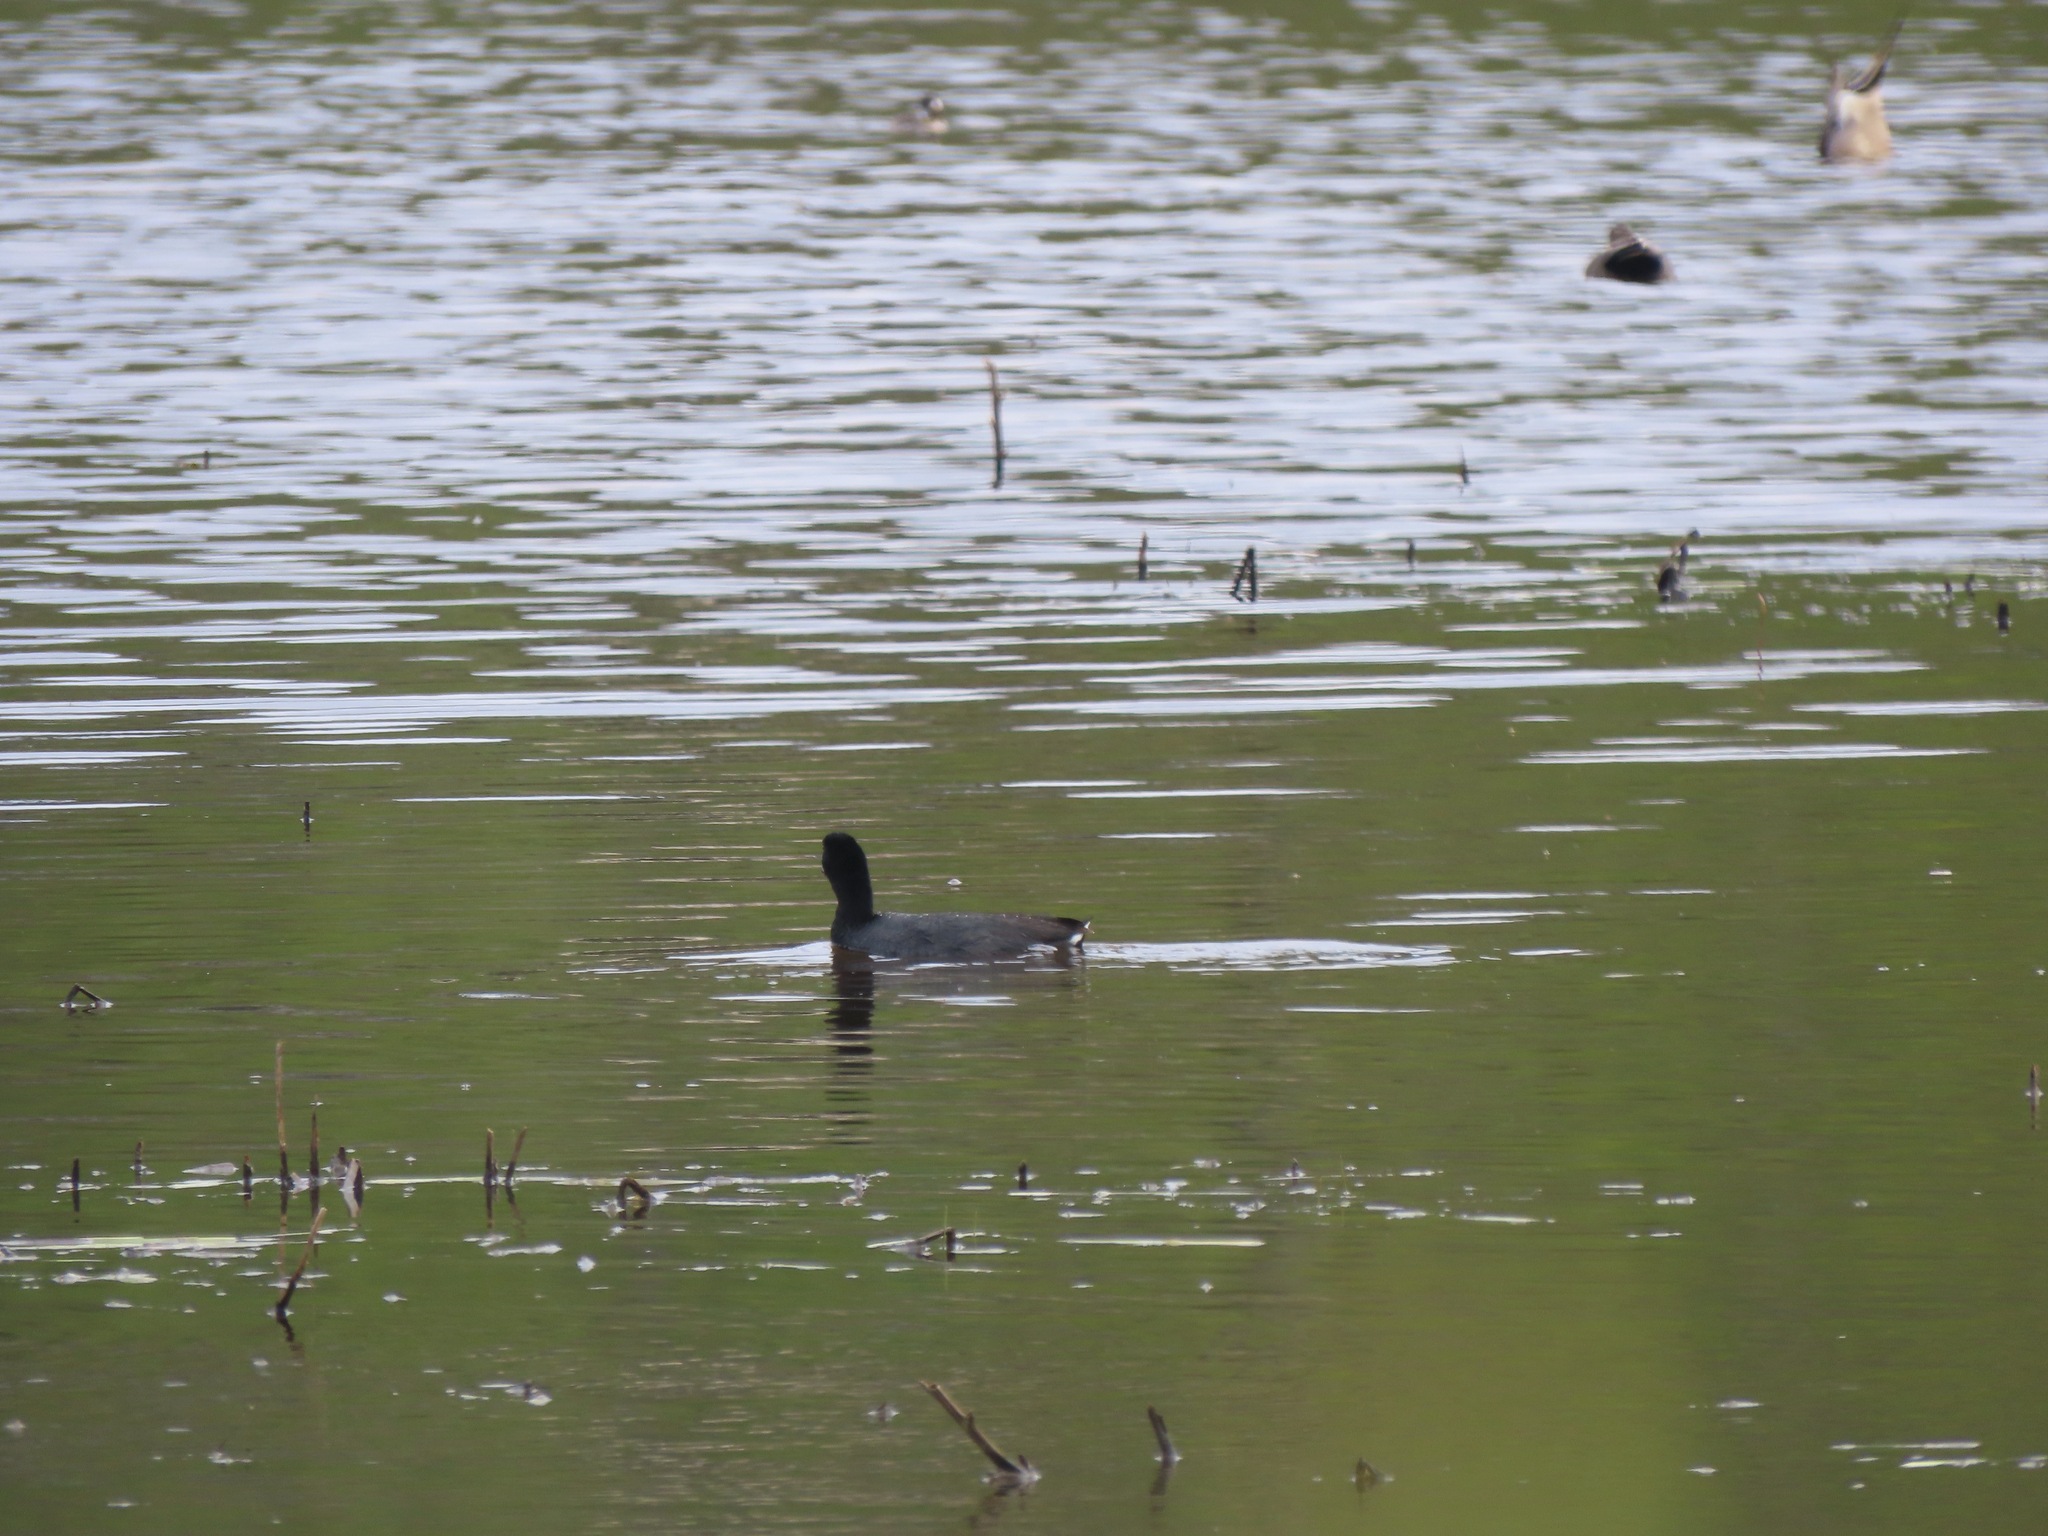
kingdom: Animalia
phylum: Chordata
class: Aves
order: Gruiformes
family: Rallidae
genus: Fulica
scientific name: Fulica americana
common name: American coot
